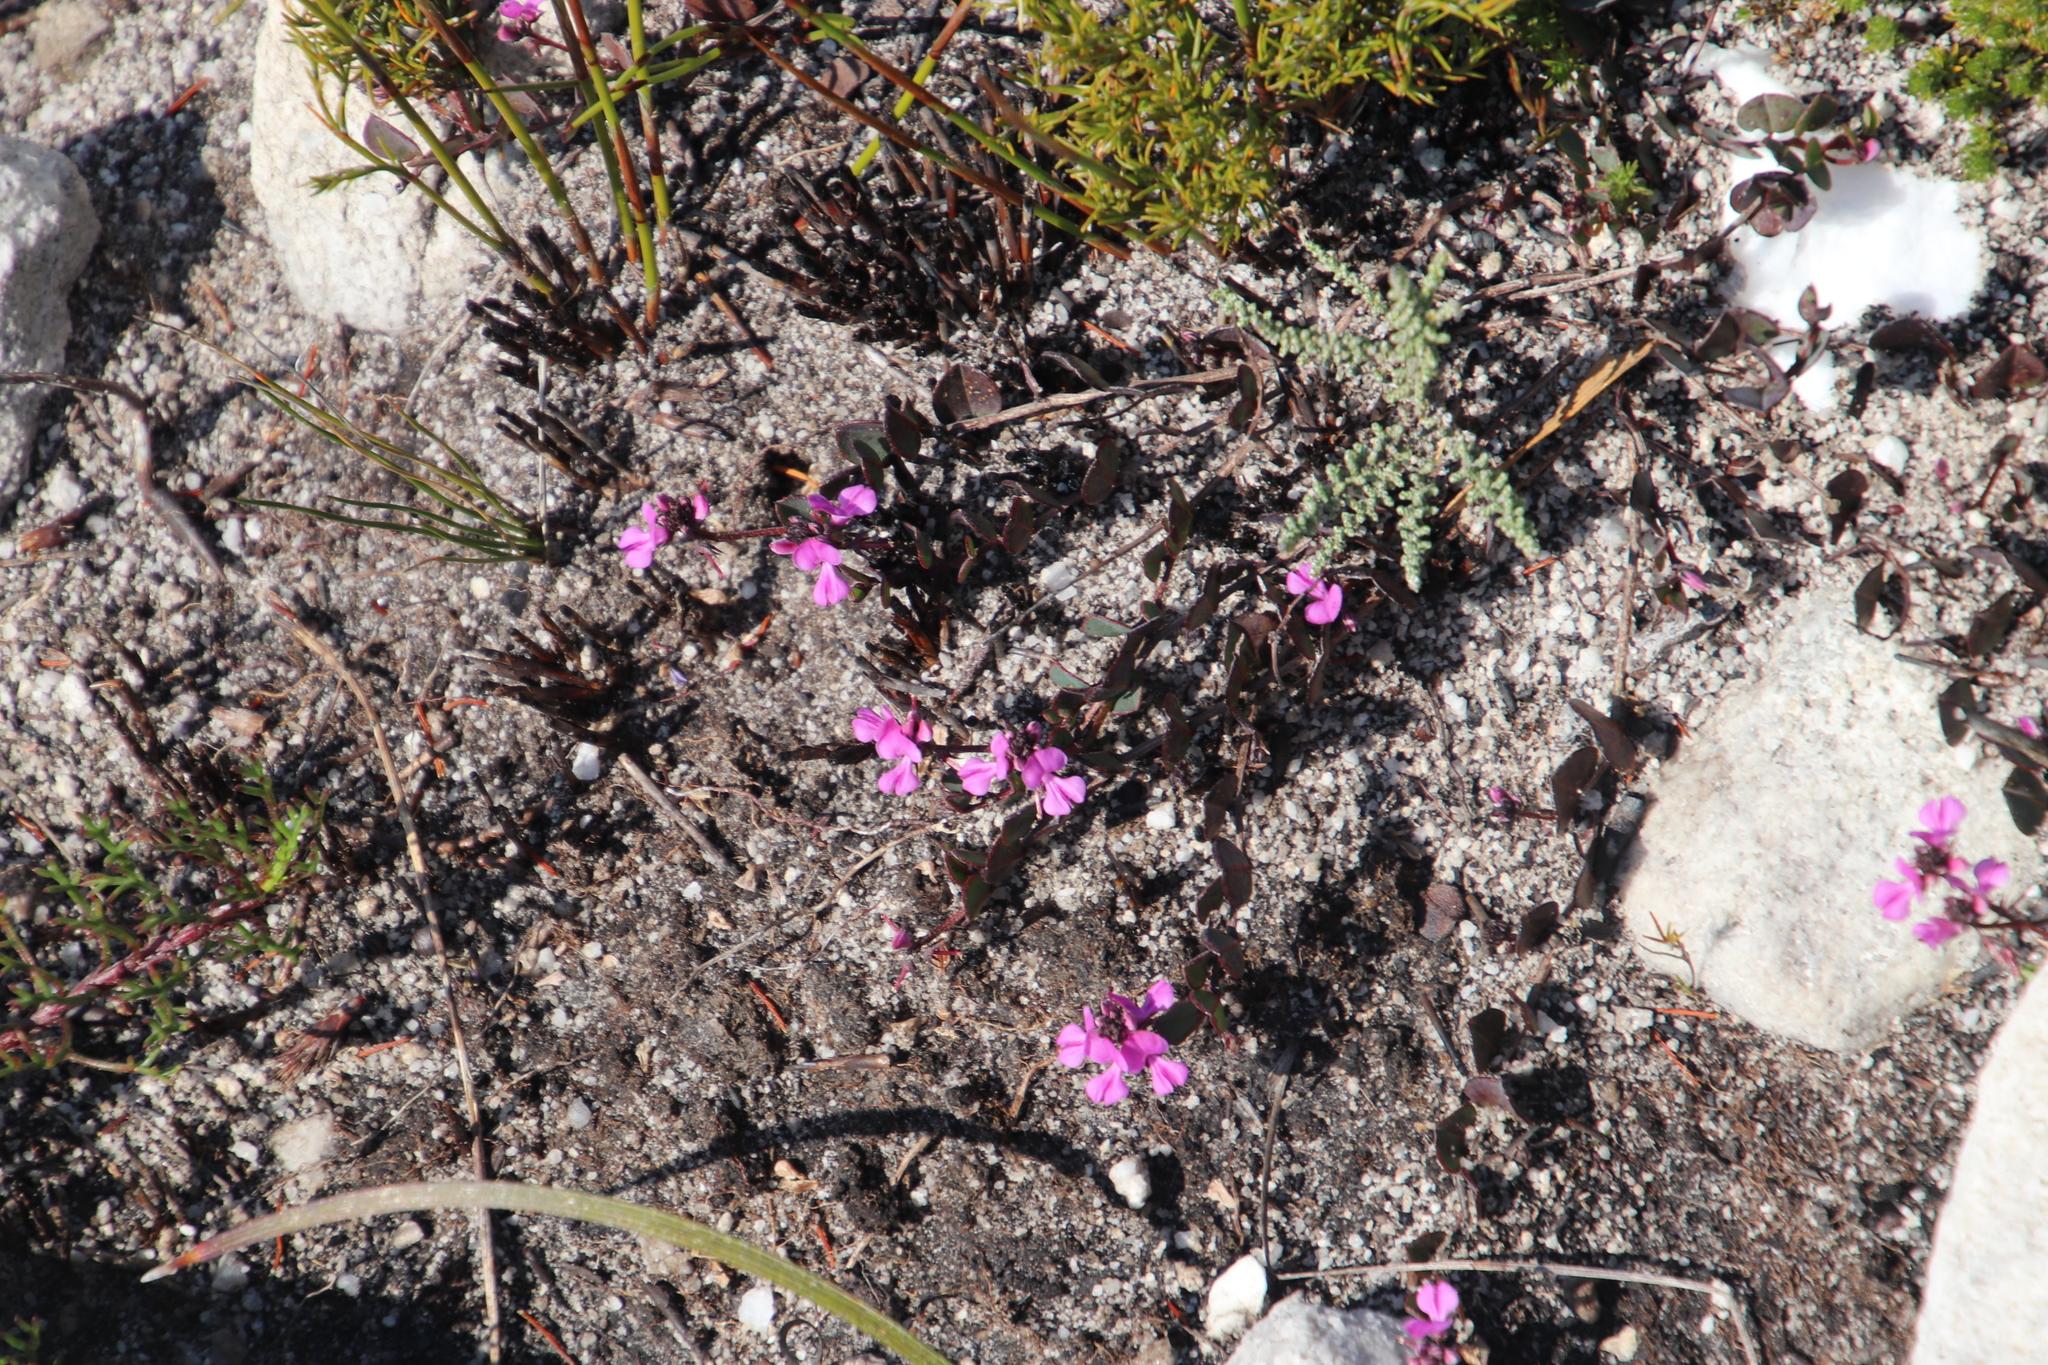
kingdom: Plantae
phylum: Tracheophyta
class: Magnoliopsida
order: Fabales
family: Fabaceae
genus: Indigofera
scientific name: Indigofera ovata
